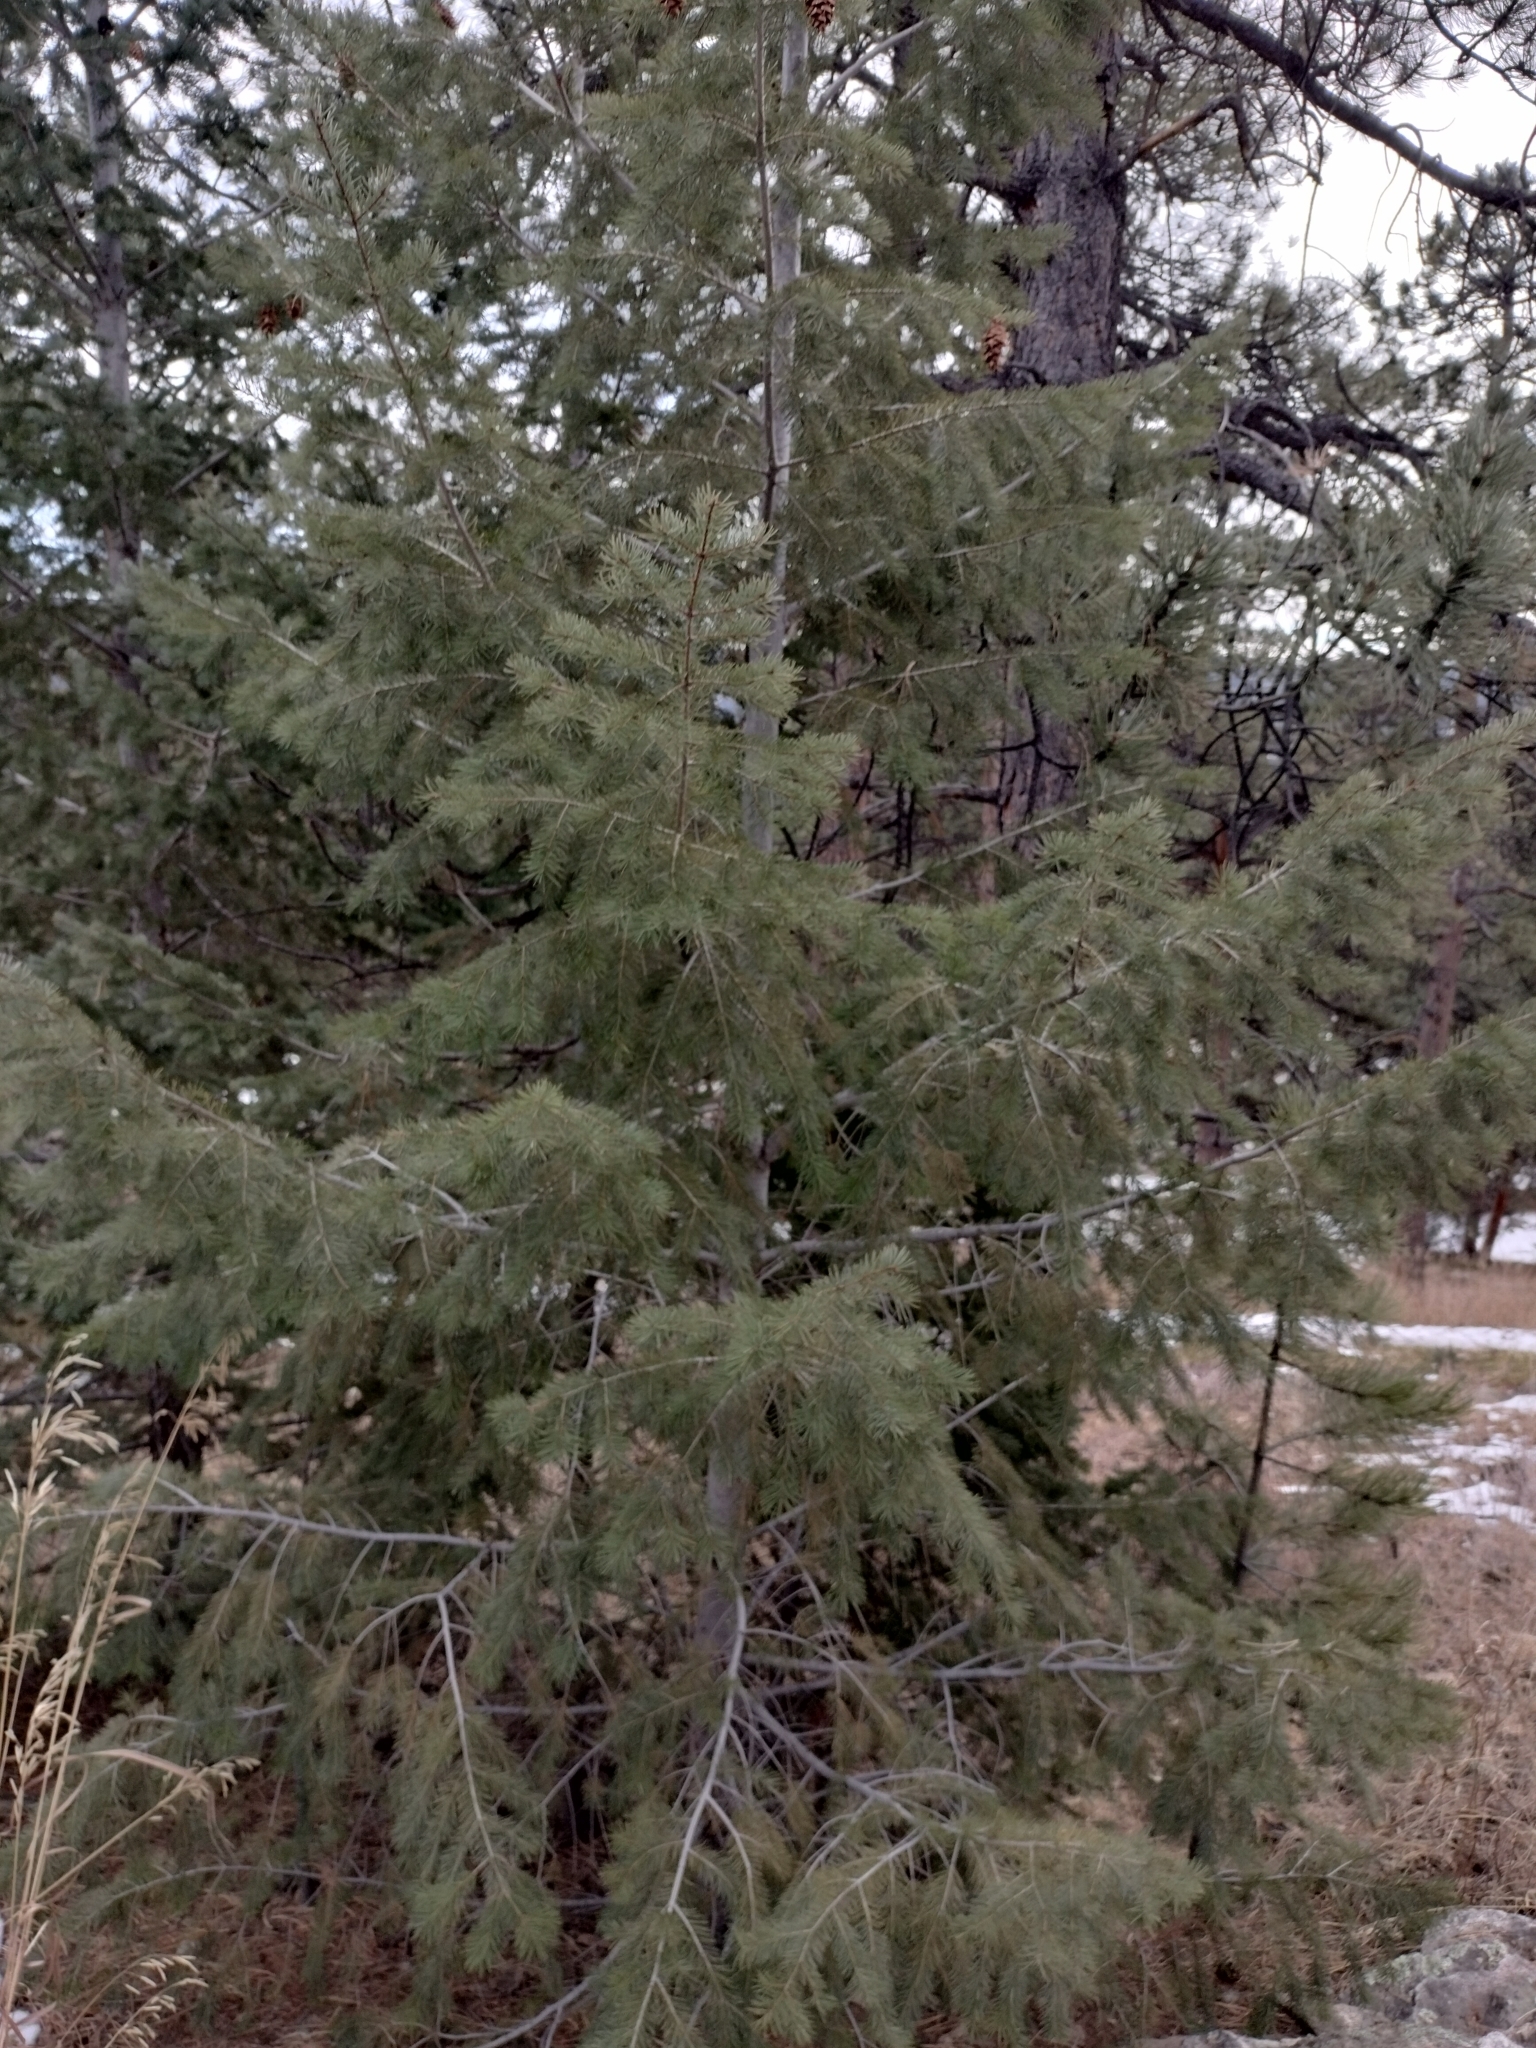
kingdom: Plantae
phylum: Tracheophyta
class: Pinopsida
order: Pinales
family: Pinaceae
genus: Pseudotsuga
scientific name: Pseudotsuga menziesii
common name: Douglas fir
